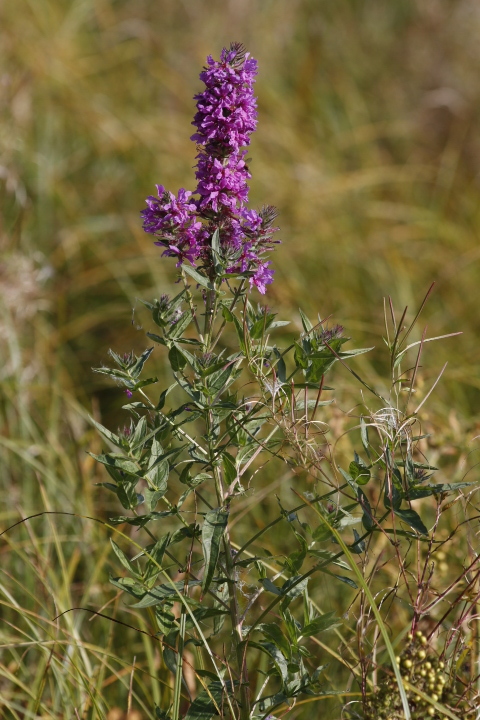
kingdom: Plantae
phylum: Tracheophyta
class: Magnoliopsida
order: Myrtales
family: Lythraceae
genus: Lythrum
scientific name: Lythrum salicaria
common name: Purple loosestrife
